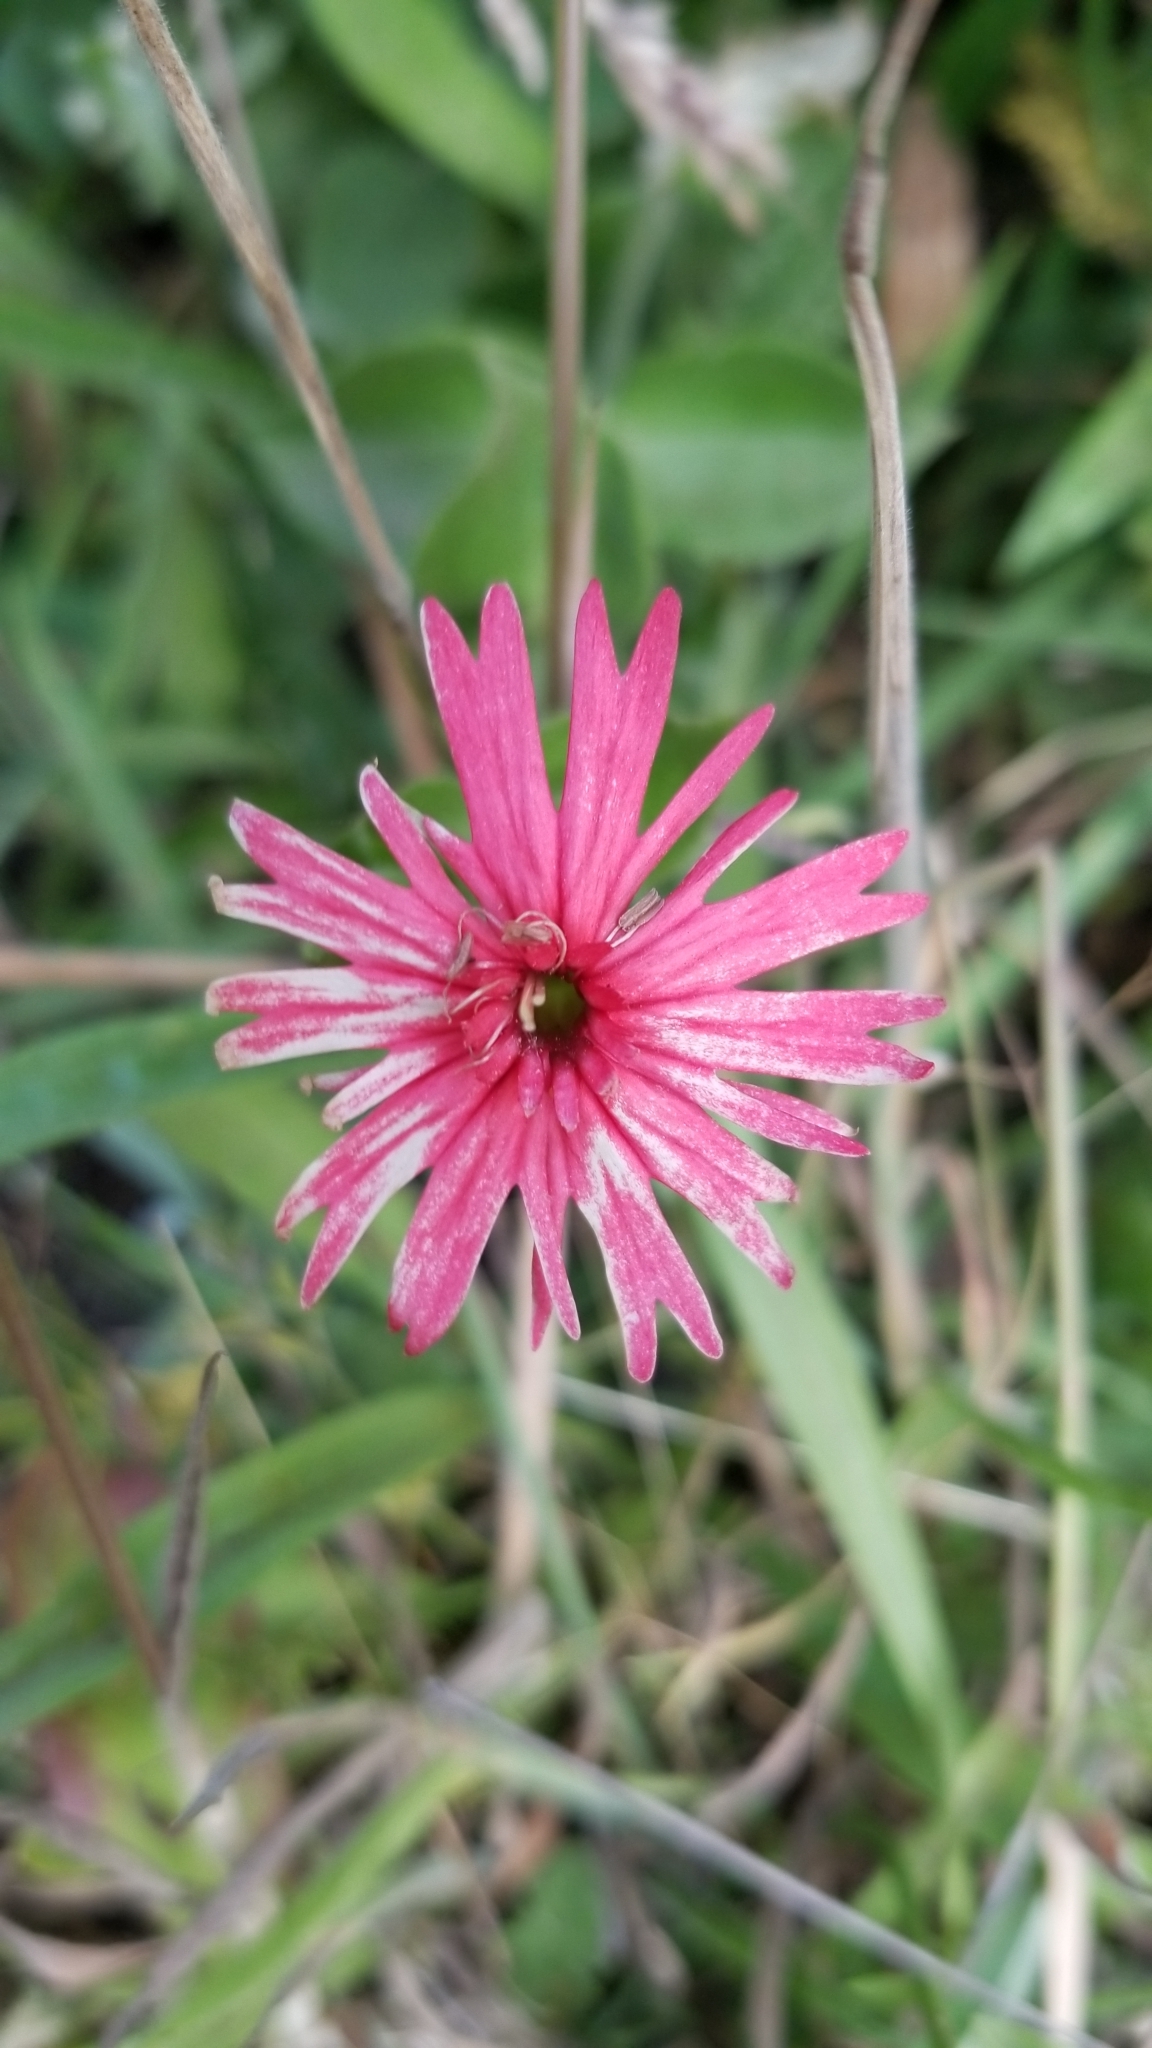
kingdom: Plantae
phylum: Tracheophyta
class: Magnoliopsida
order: Caryophyllales
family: Caryophyllaceae
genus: Silene
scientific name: Silene laciniata
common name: Indian-pink
